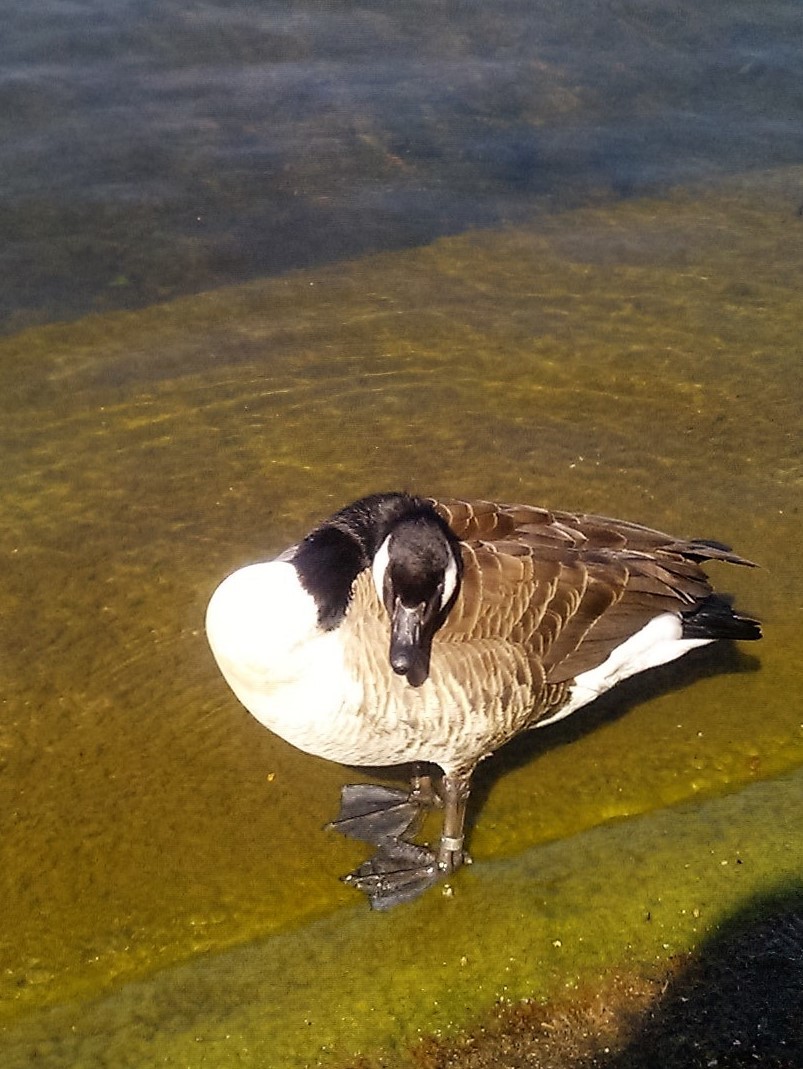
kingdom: Animalia
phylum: Chordata
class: Aves
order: Anseriformes
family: Anatidae
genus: Branta
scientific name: Branta canadensis
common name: Canada goose
